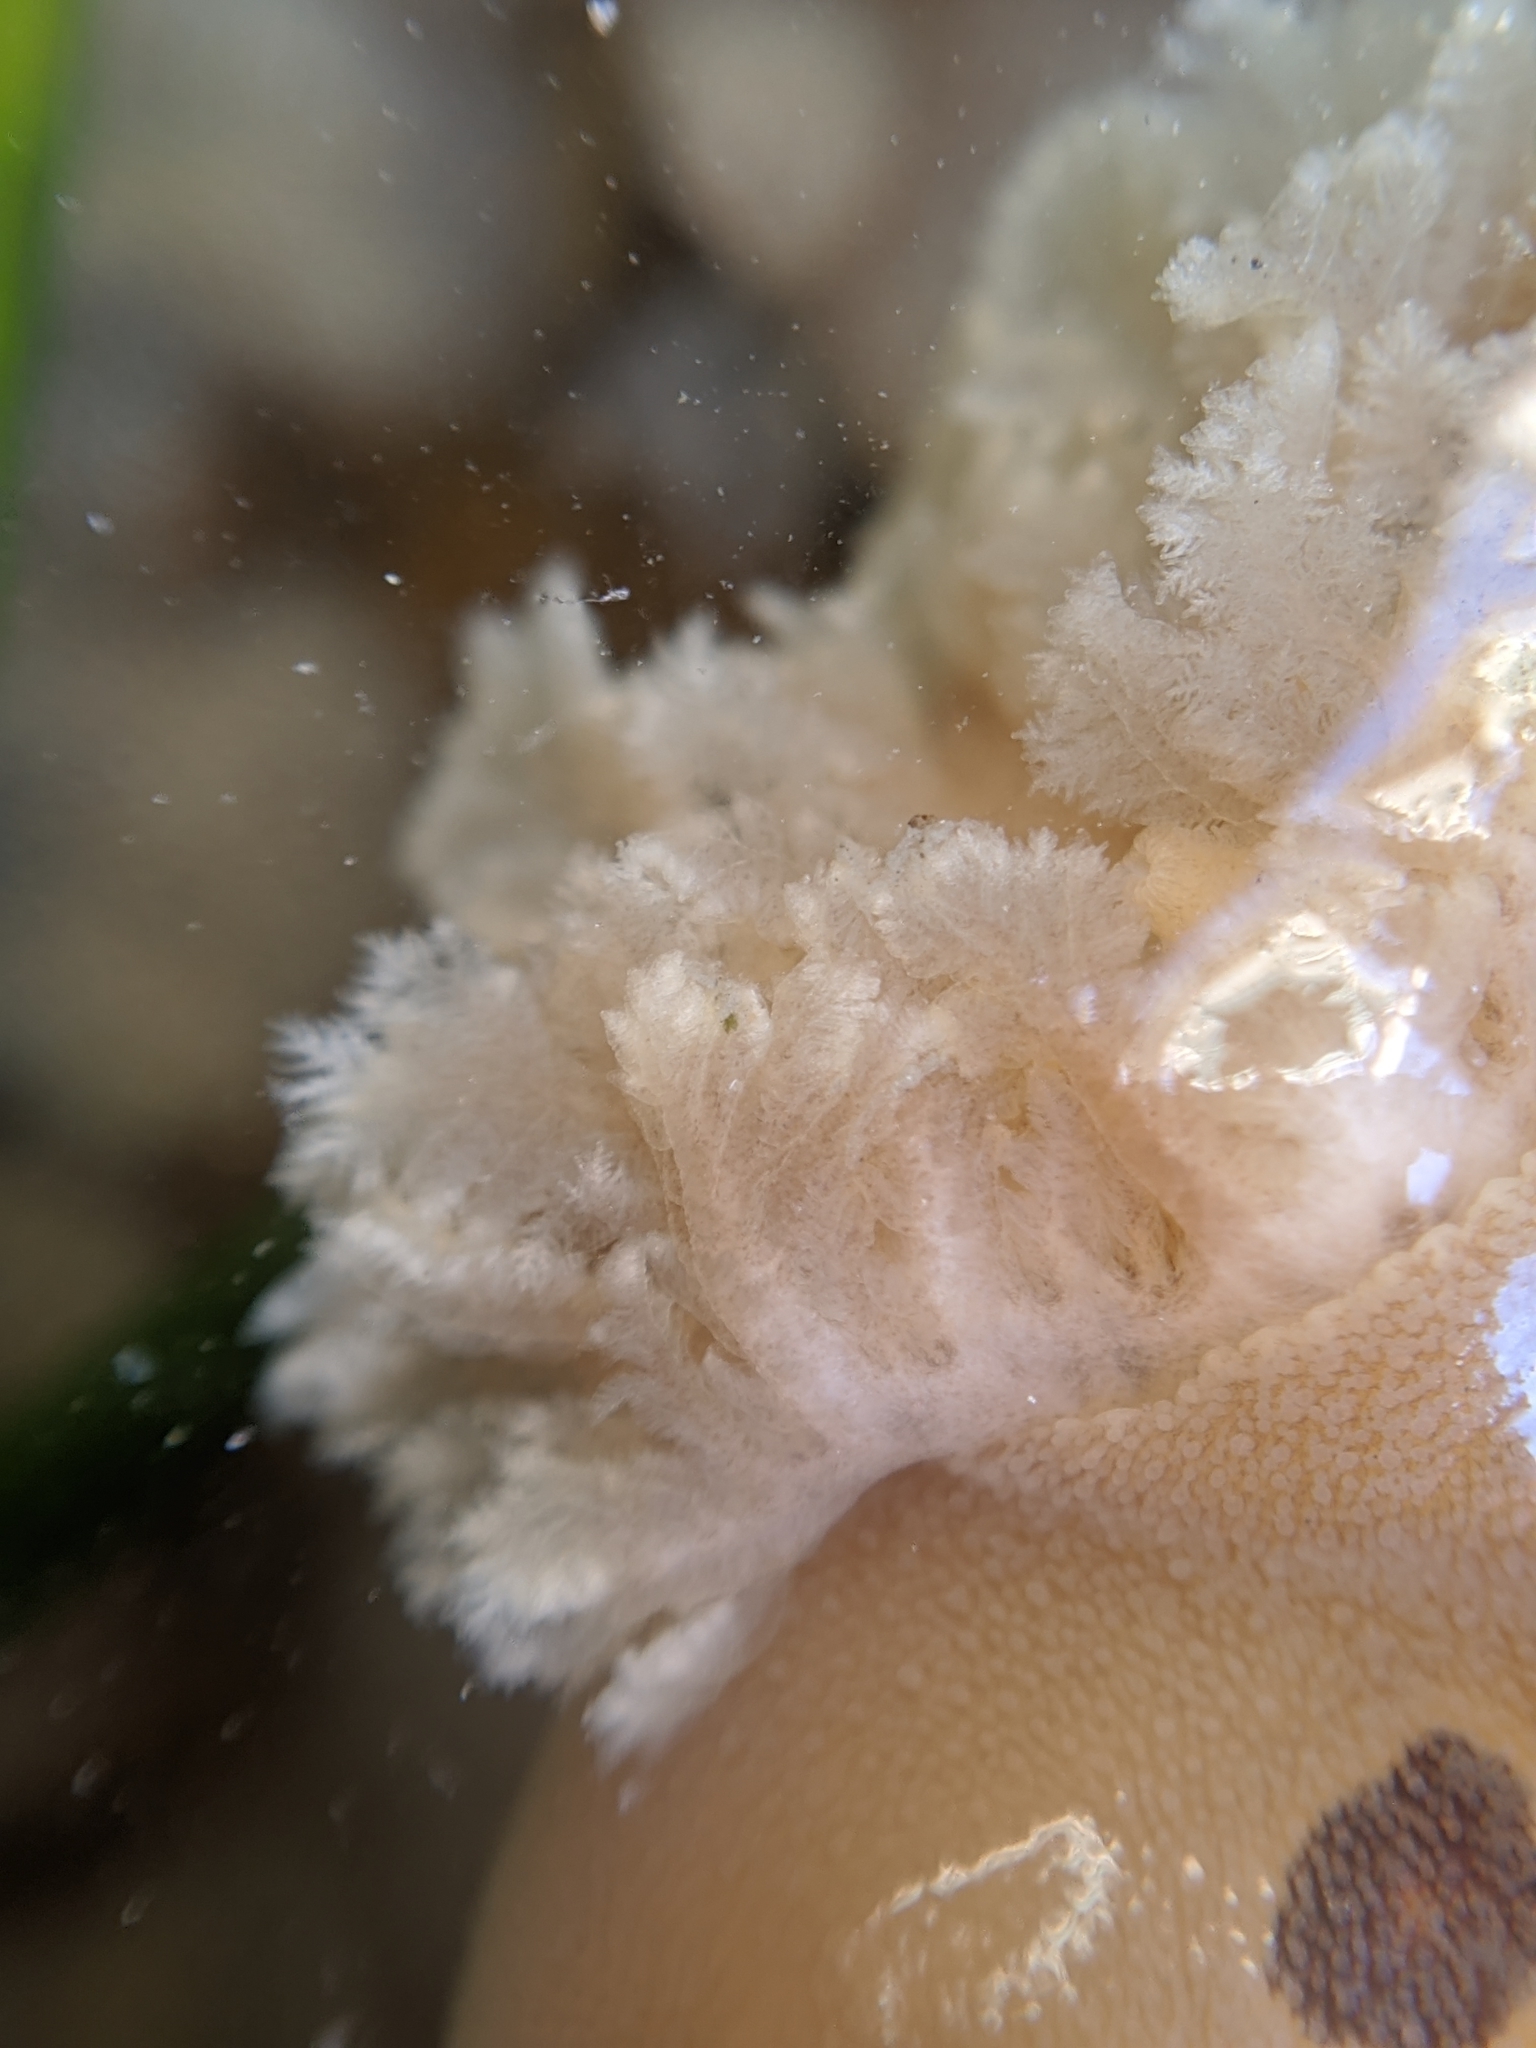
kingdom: Animalia
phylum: Mollusca
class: Gastropoda
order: Nudibranchia
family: Discodorididae
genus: Diaulula
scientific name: Diaulula sandiegensis
